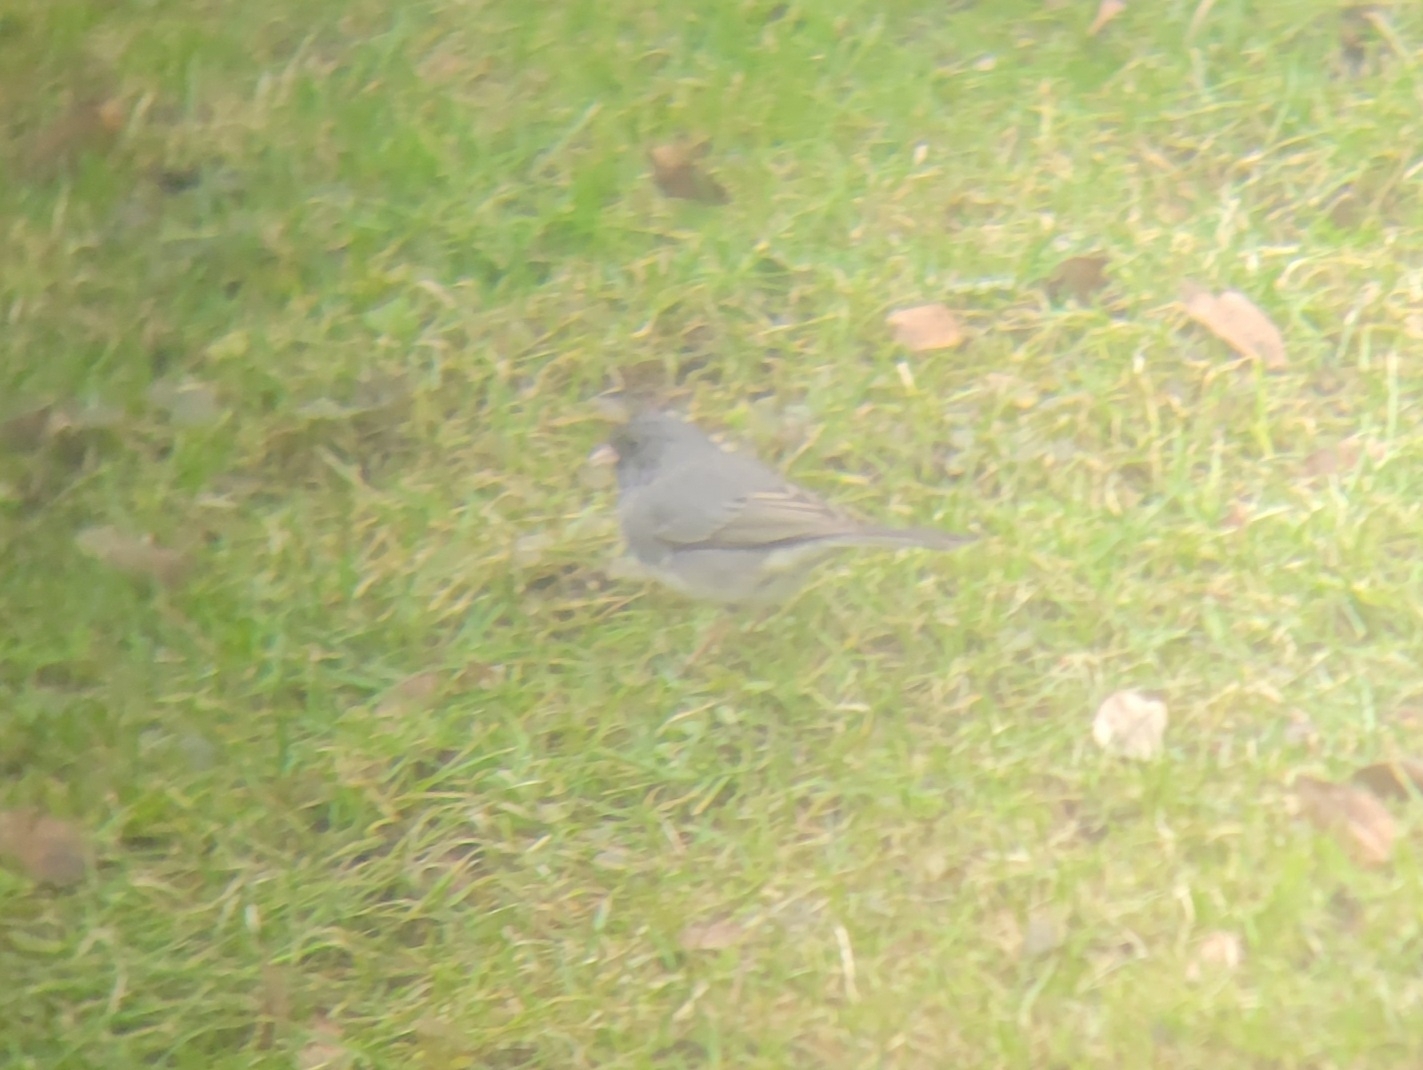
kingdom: Animalia
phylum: Chordata
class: Aves
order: Passeriformes
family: Passerellidae
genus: Junco
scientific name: Junco hyemalis
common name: Dark-eyed junco
